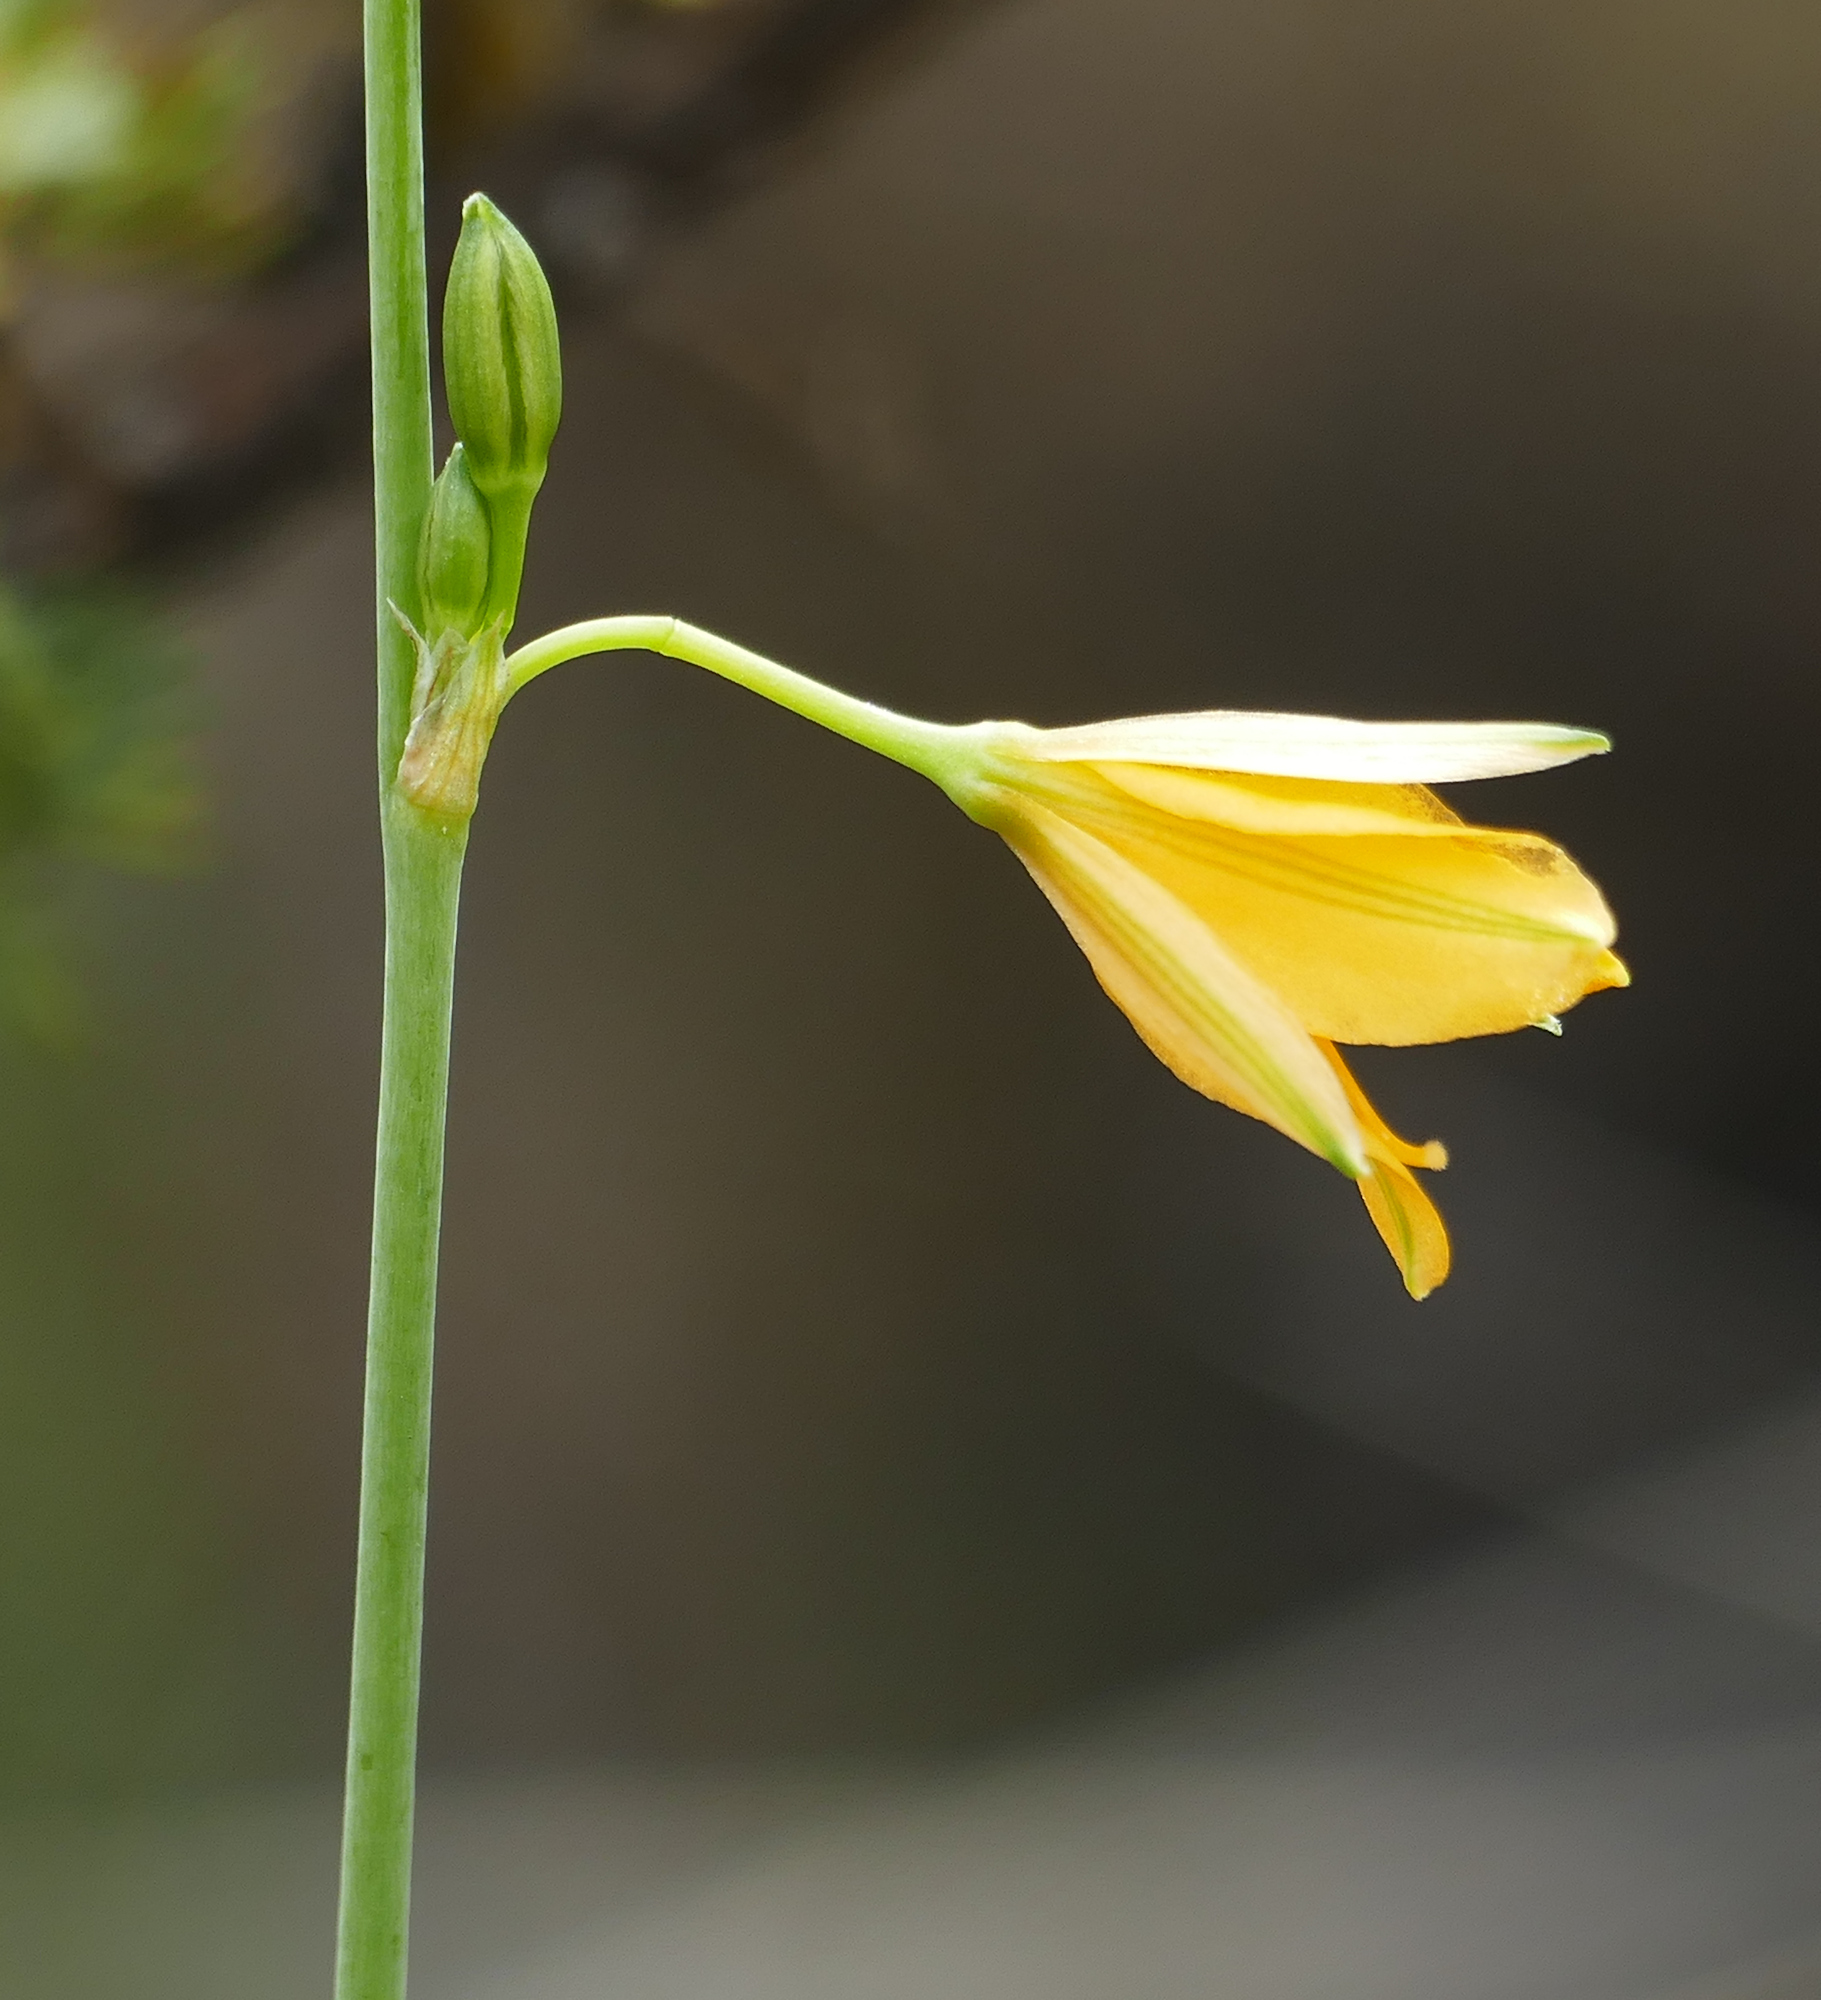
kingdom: Plantae
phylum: Tracheophyta
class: Liliopsida
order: Asparagales
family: Asparagaceae
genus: Echeandia
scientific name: Echeandia flavescens
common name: Amberlily
